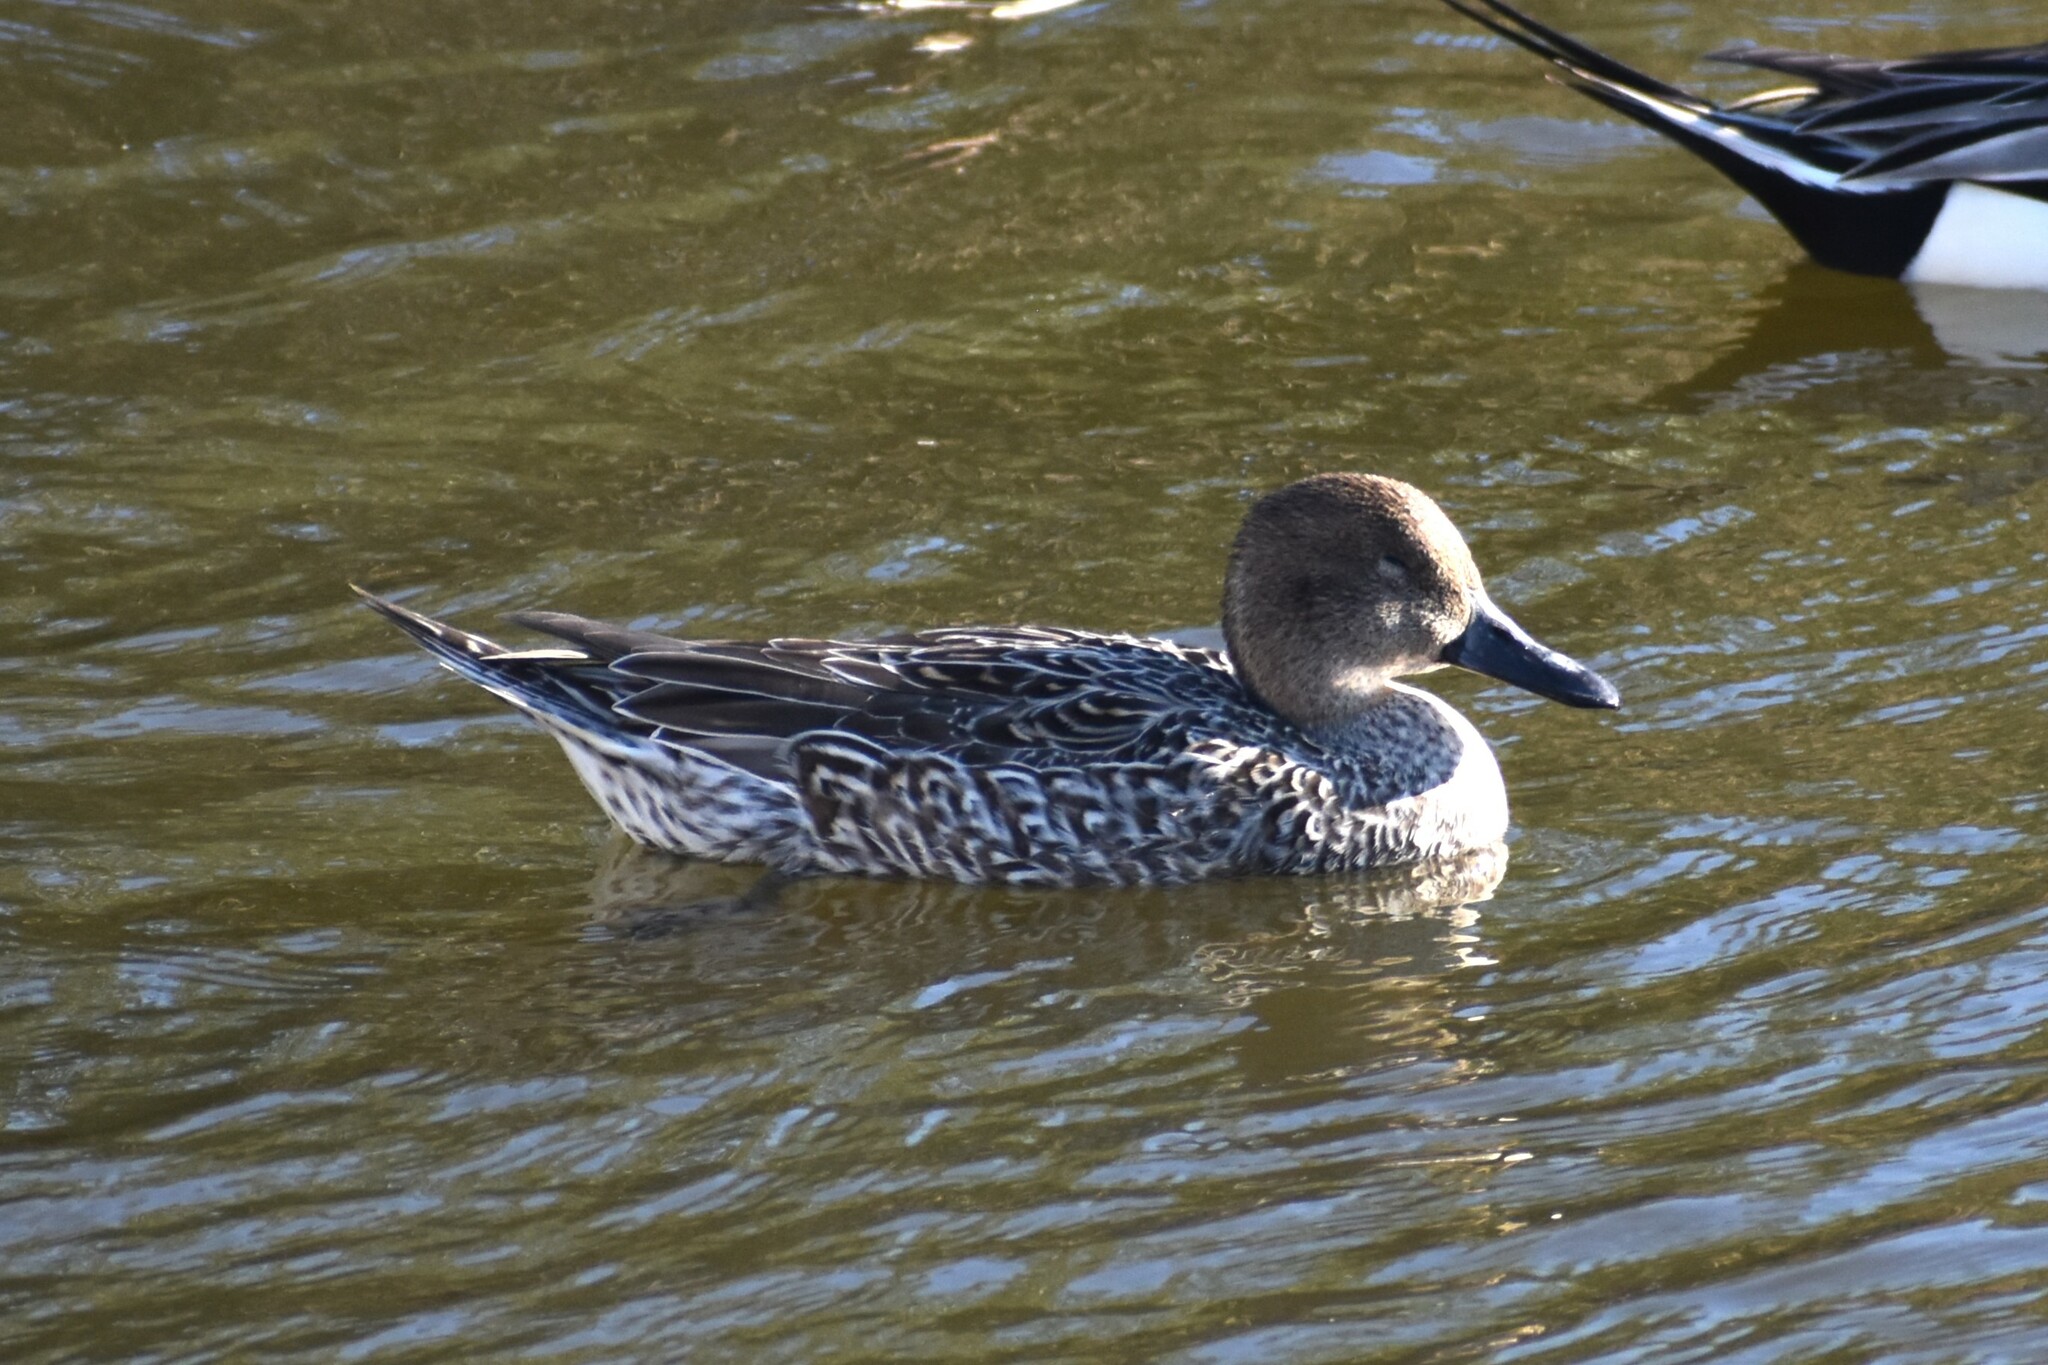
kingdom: Animalia
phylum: Chordata
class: Aves
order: Anseriformes
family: Anatidae
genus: Anas
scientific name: Anas acuta
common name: Northern pintail
